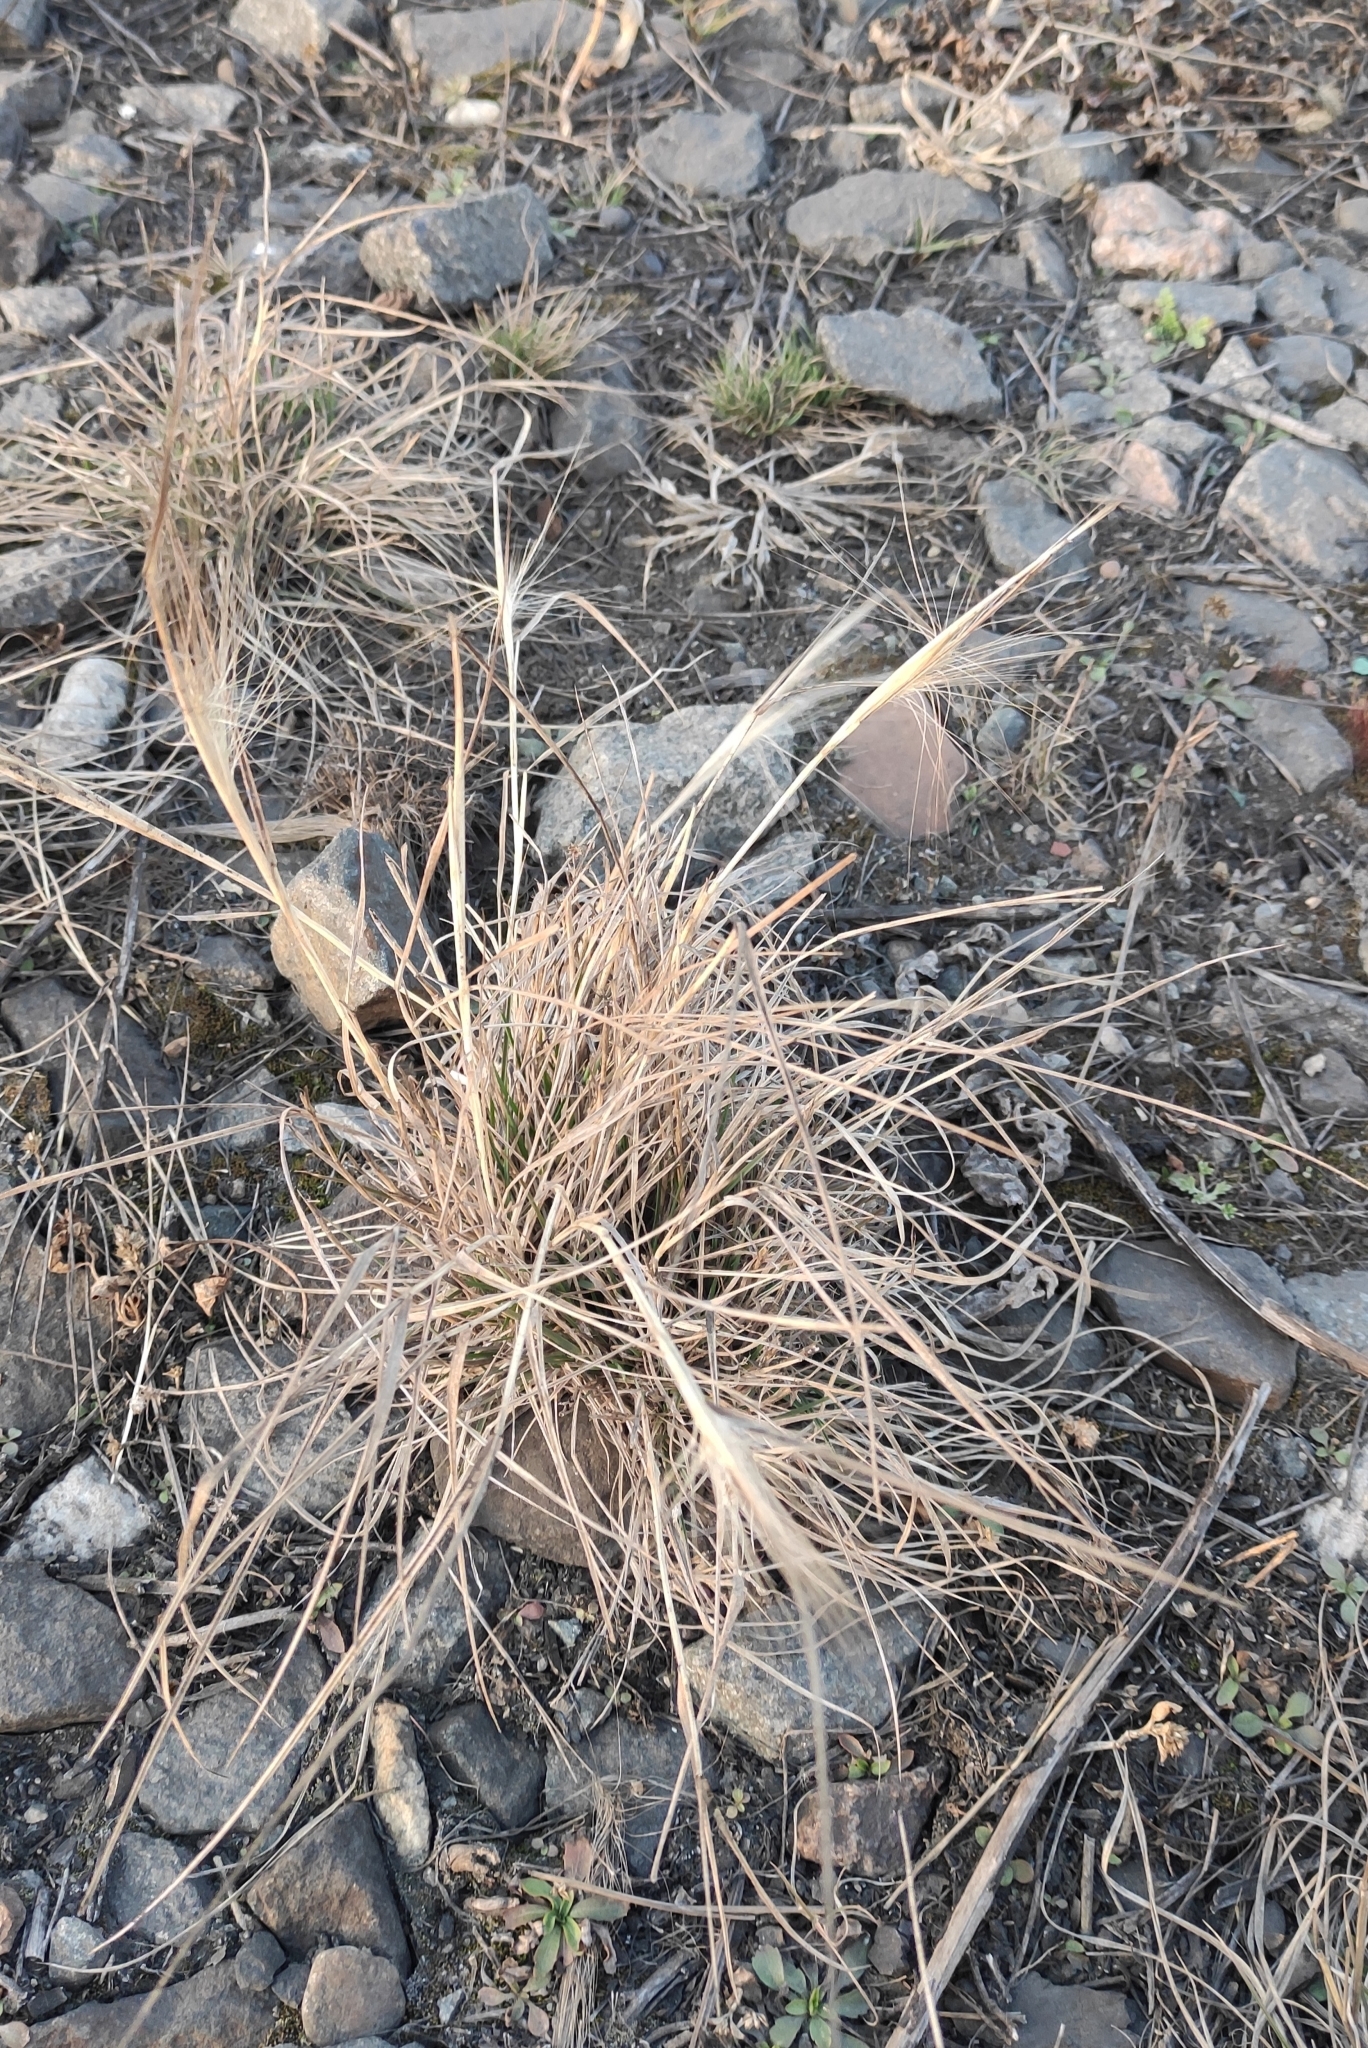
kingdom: Plantae
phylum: Tracheophyta
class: Liliopsida
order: Poales
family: Poaceae
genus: Hordeum
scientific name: Hordeum jubatum
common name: Foxtail barley
